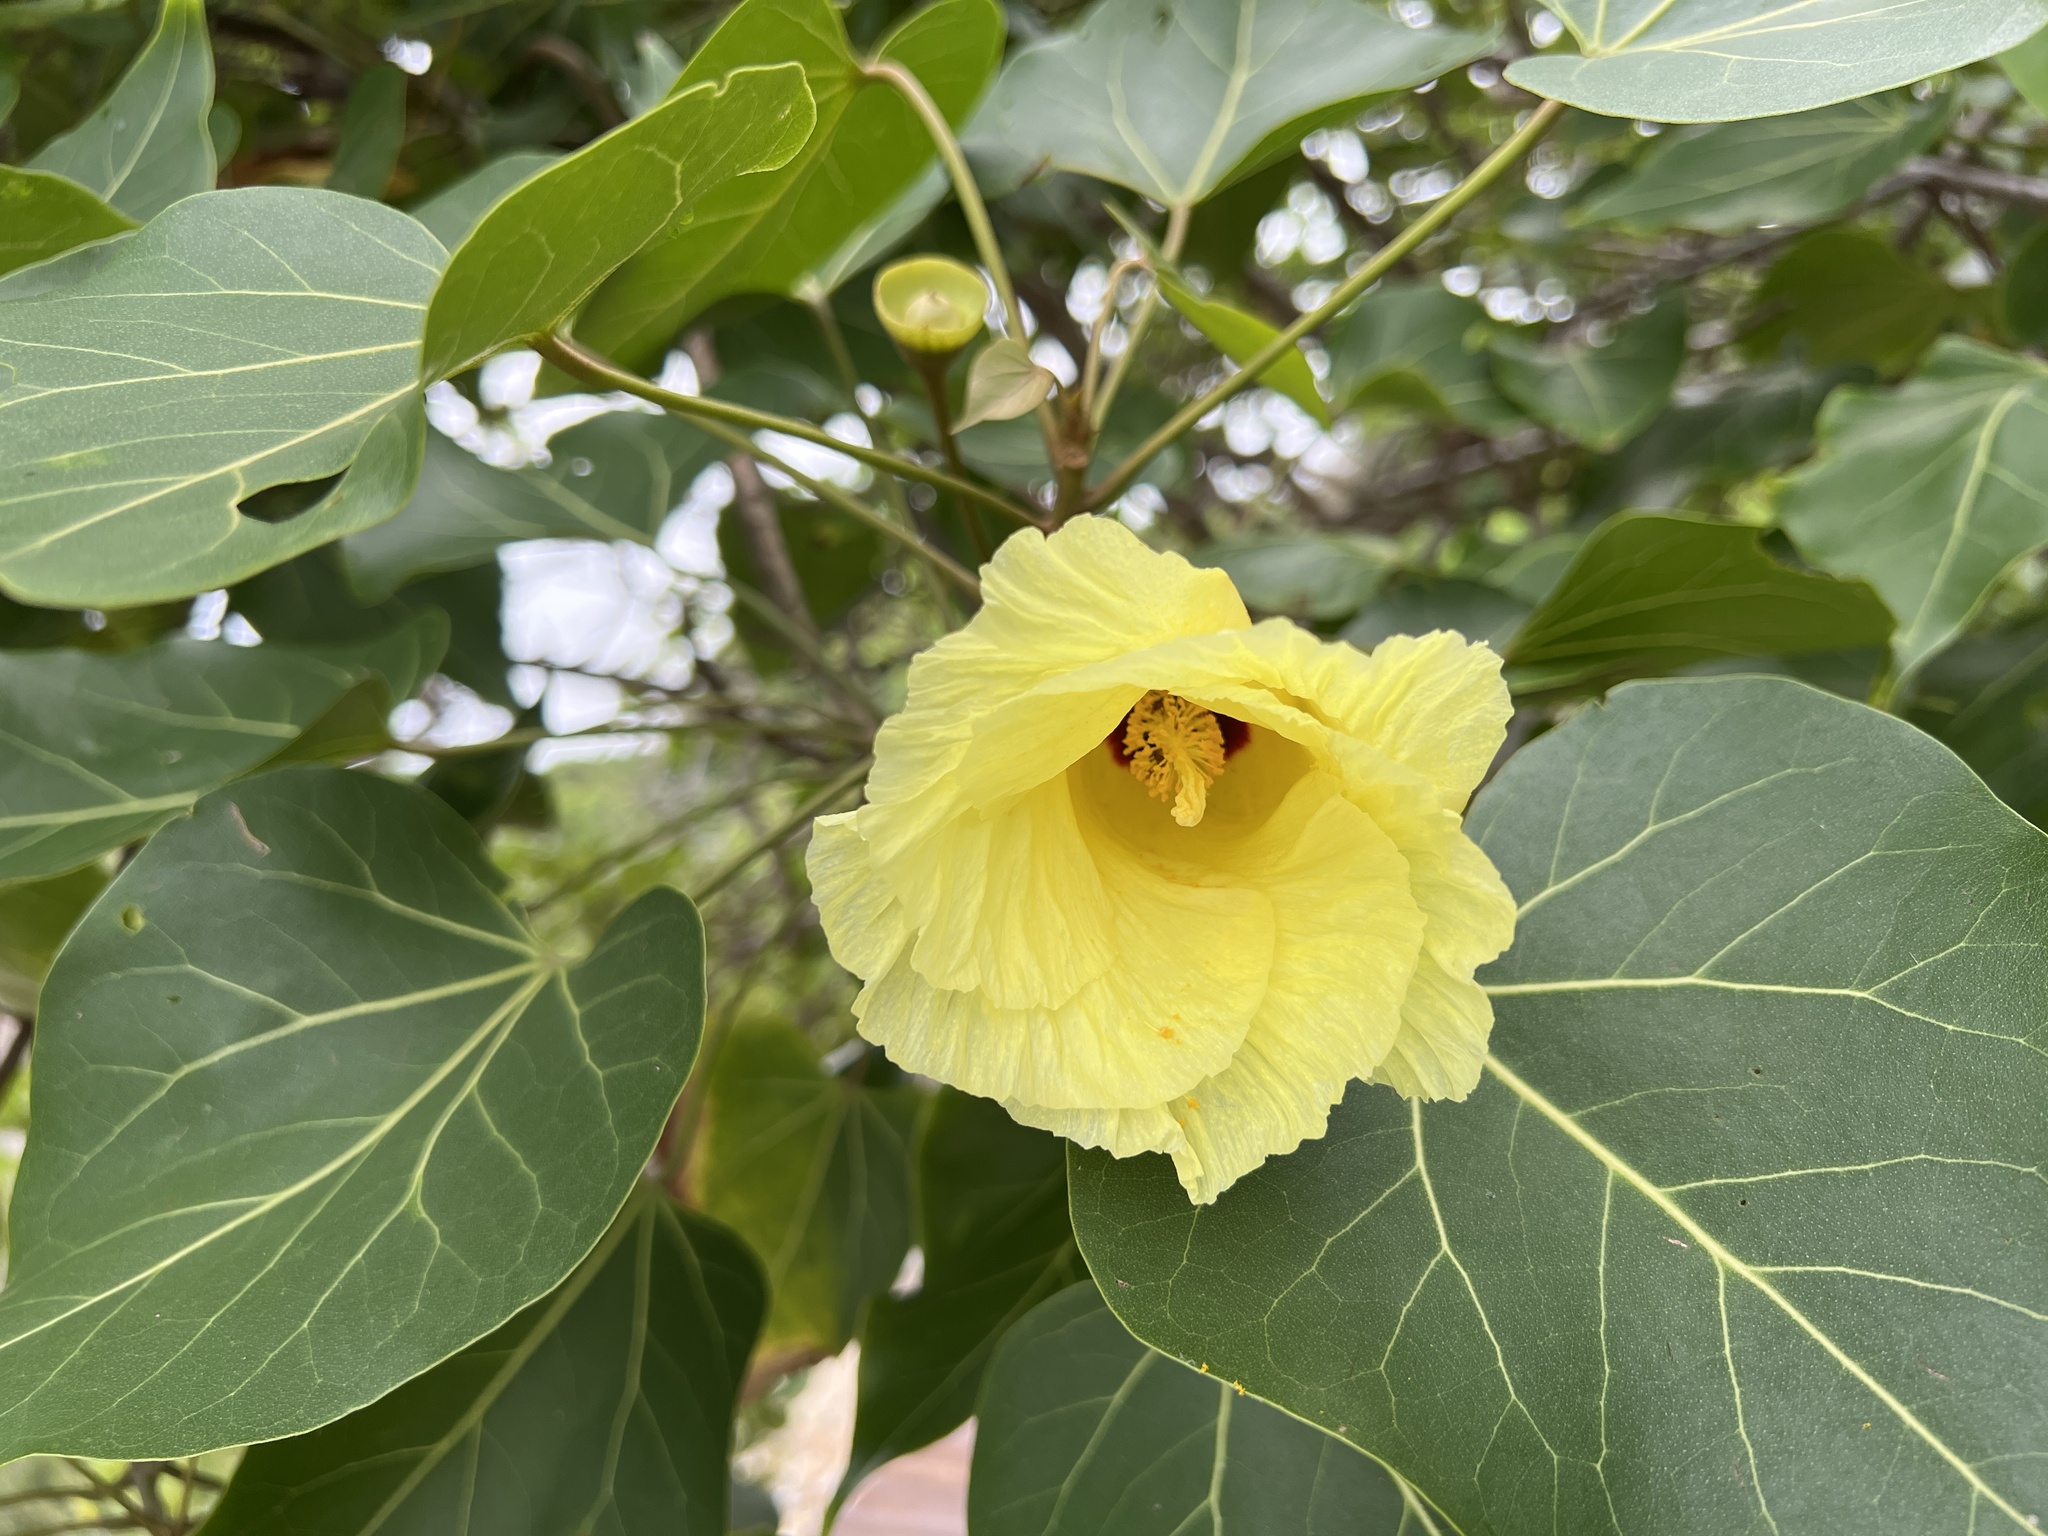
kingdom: Plantae
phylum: Tracheophyta
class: Magnoliopsida
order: Malvales
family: Malvaceae
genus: Thespesia
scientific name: Thespesia populnea
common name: Seaside mahoe
